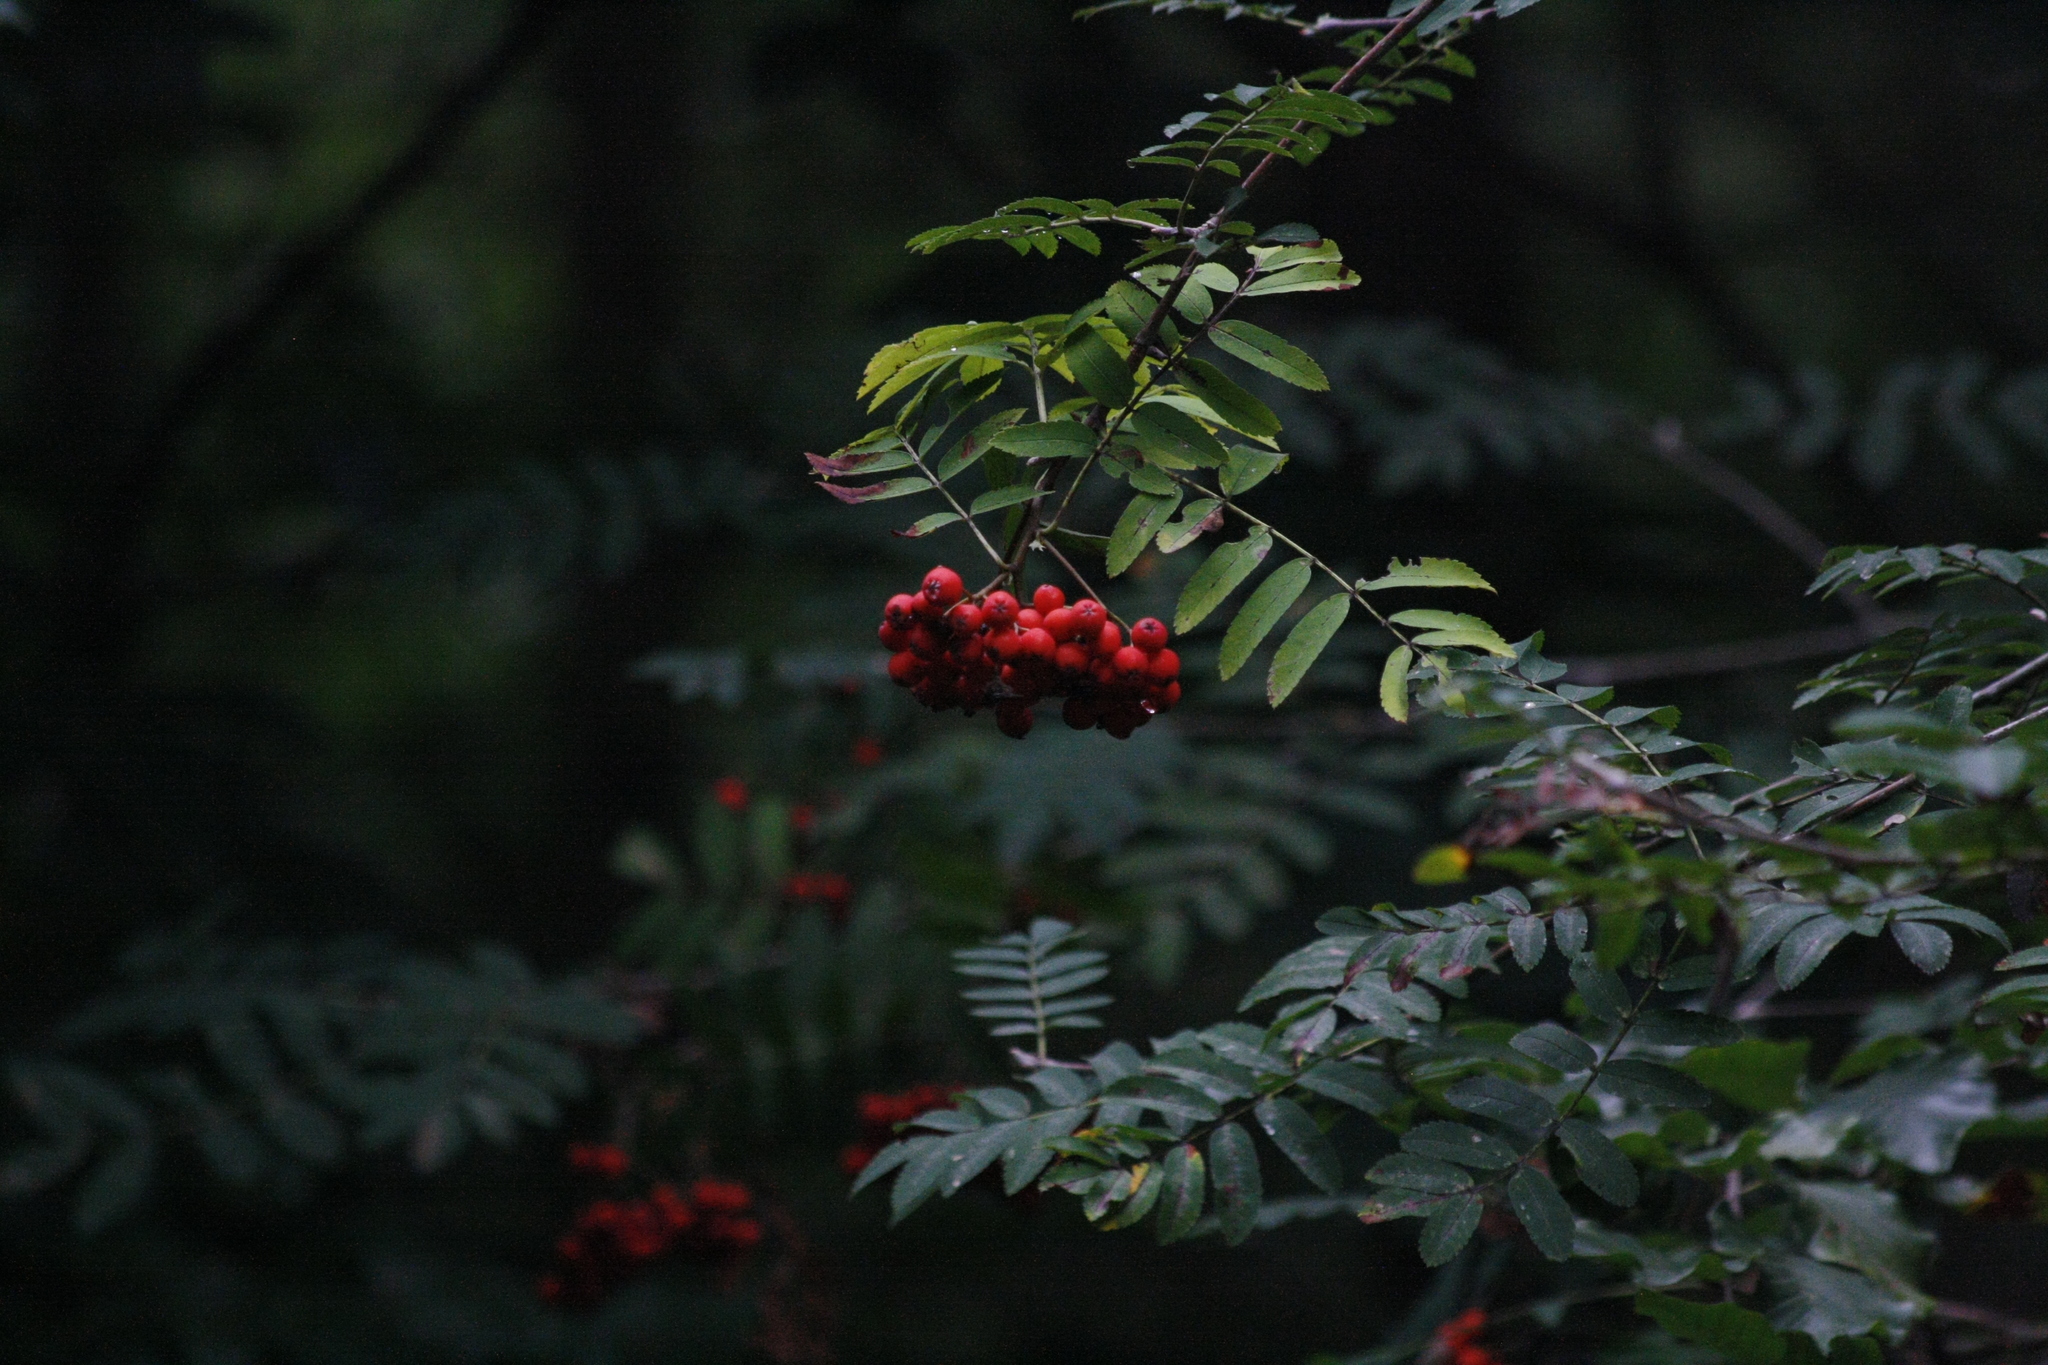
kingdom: Plantae
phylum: Tracheophyta
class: Magnoliopsida
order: Rosales
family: Rosaceae
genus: Sorbus
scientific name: Sorbus aucuparia
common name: Rowan
